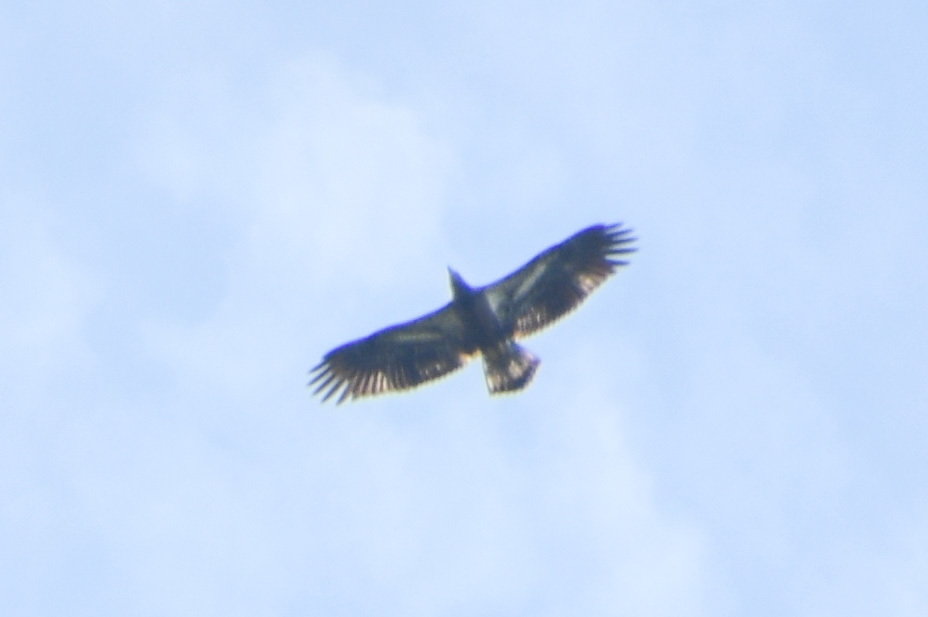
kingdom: Animalia
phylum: Chordata
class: Aves
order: Accipitriformes
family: Accipitridae
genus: Haliaeetus
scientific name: Haliaeetus leucocephalus
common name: Bald eagle
